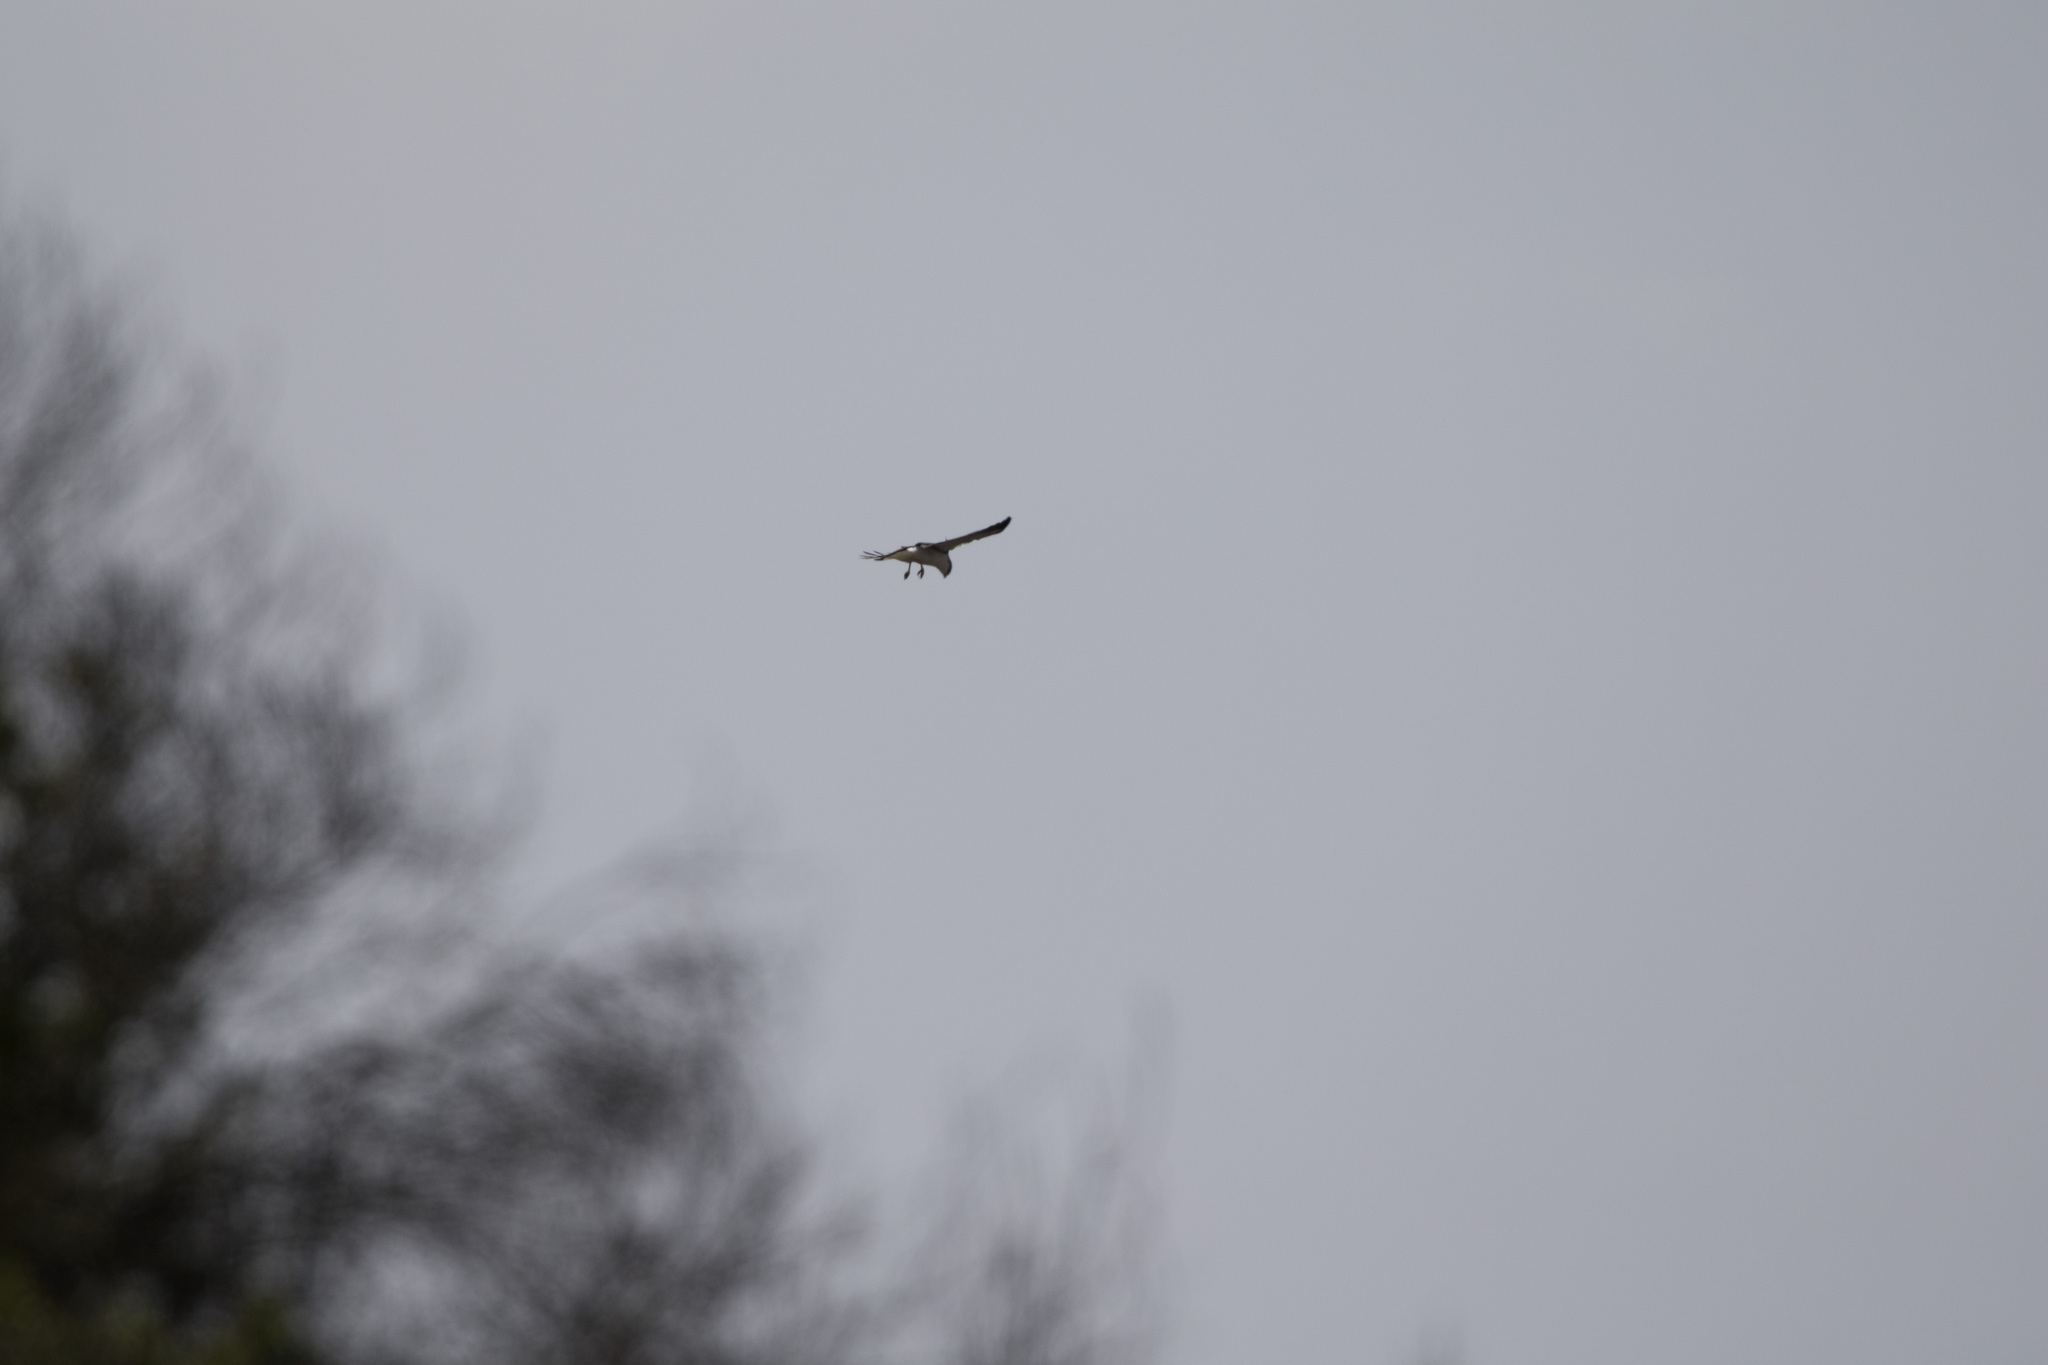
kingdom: Animalia
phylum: Chordata
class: Aves
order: Accipitriformes
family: Accipitridae
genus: Buteo
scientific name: Buteo polyosoma
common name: Variable hawk
